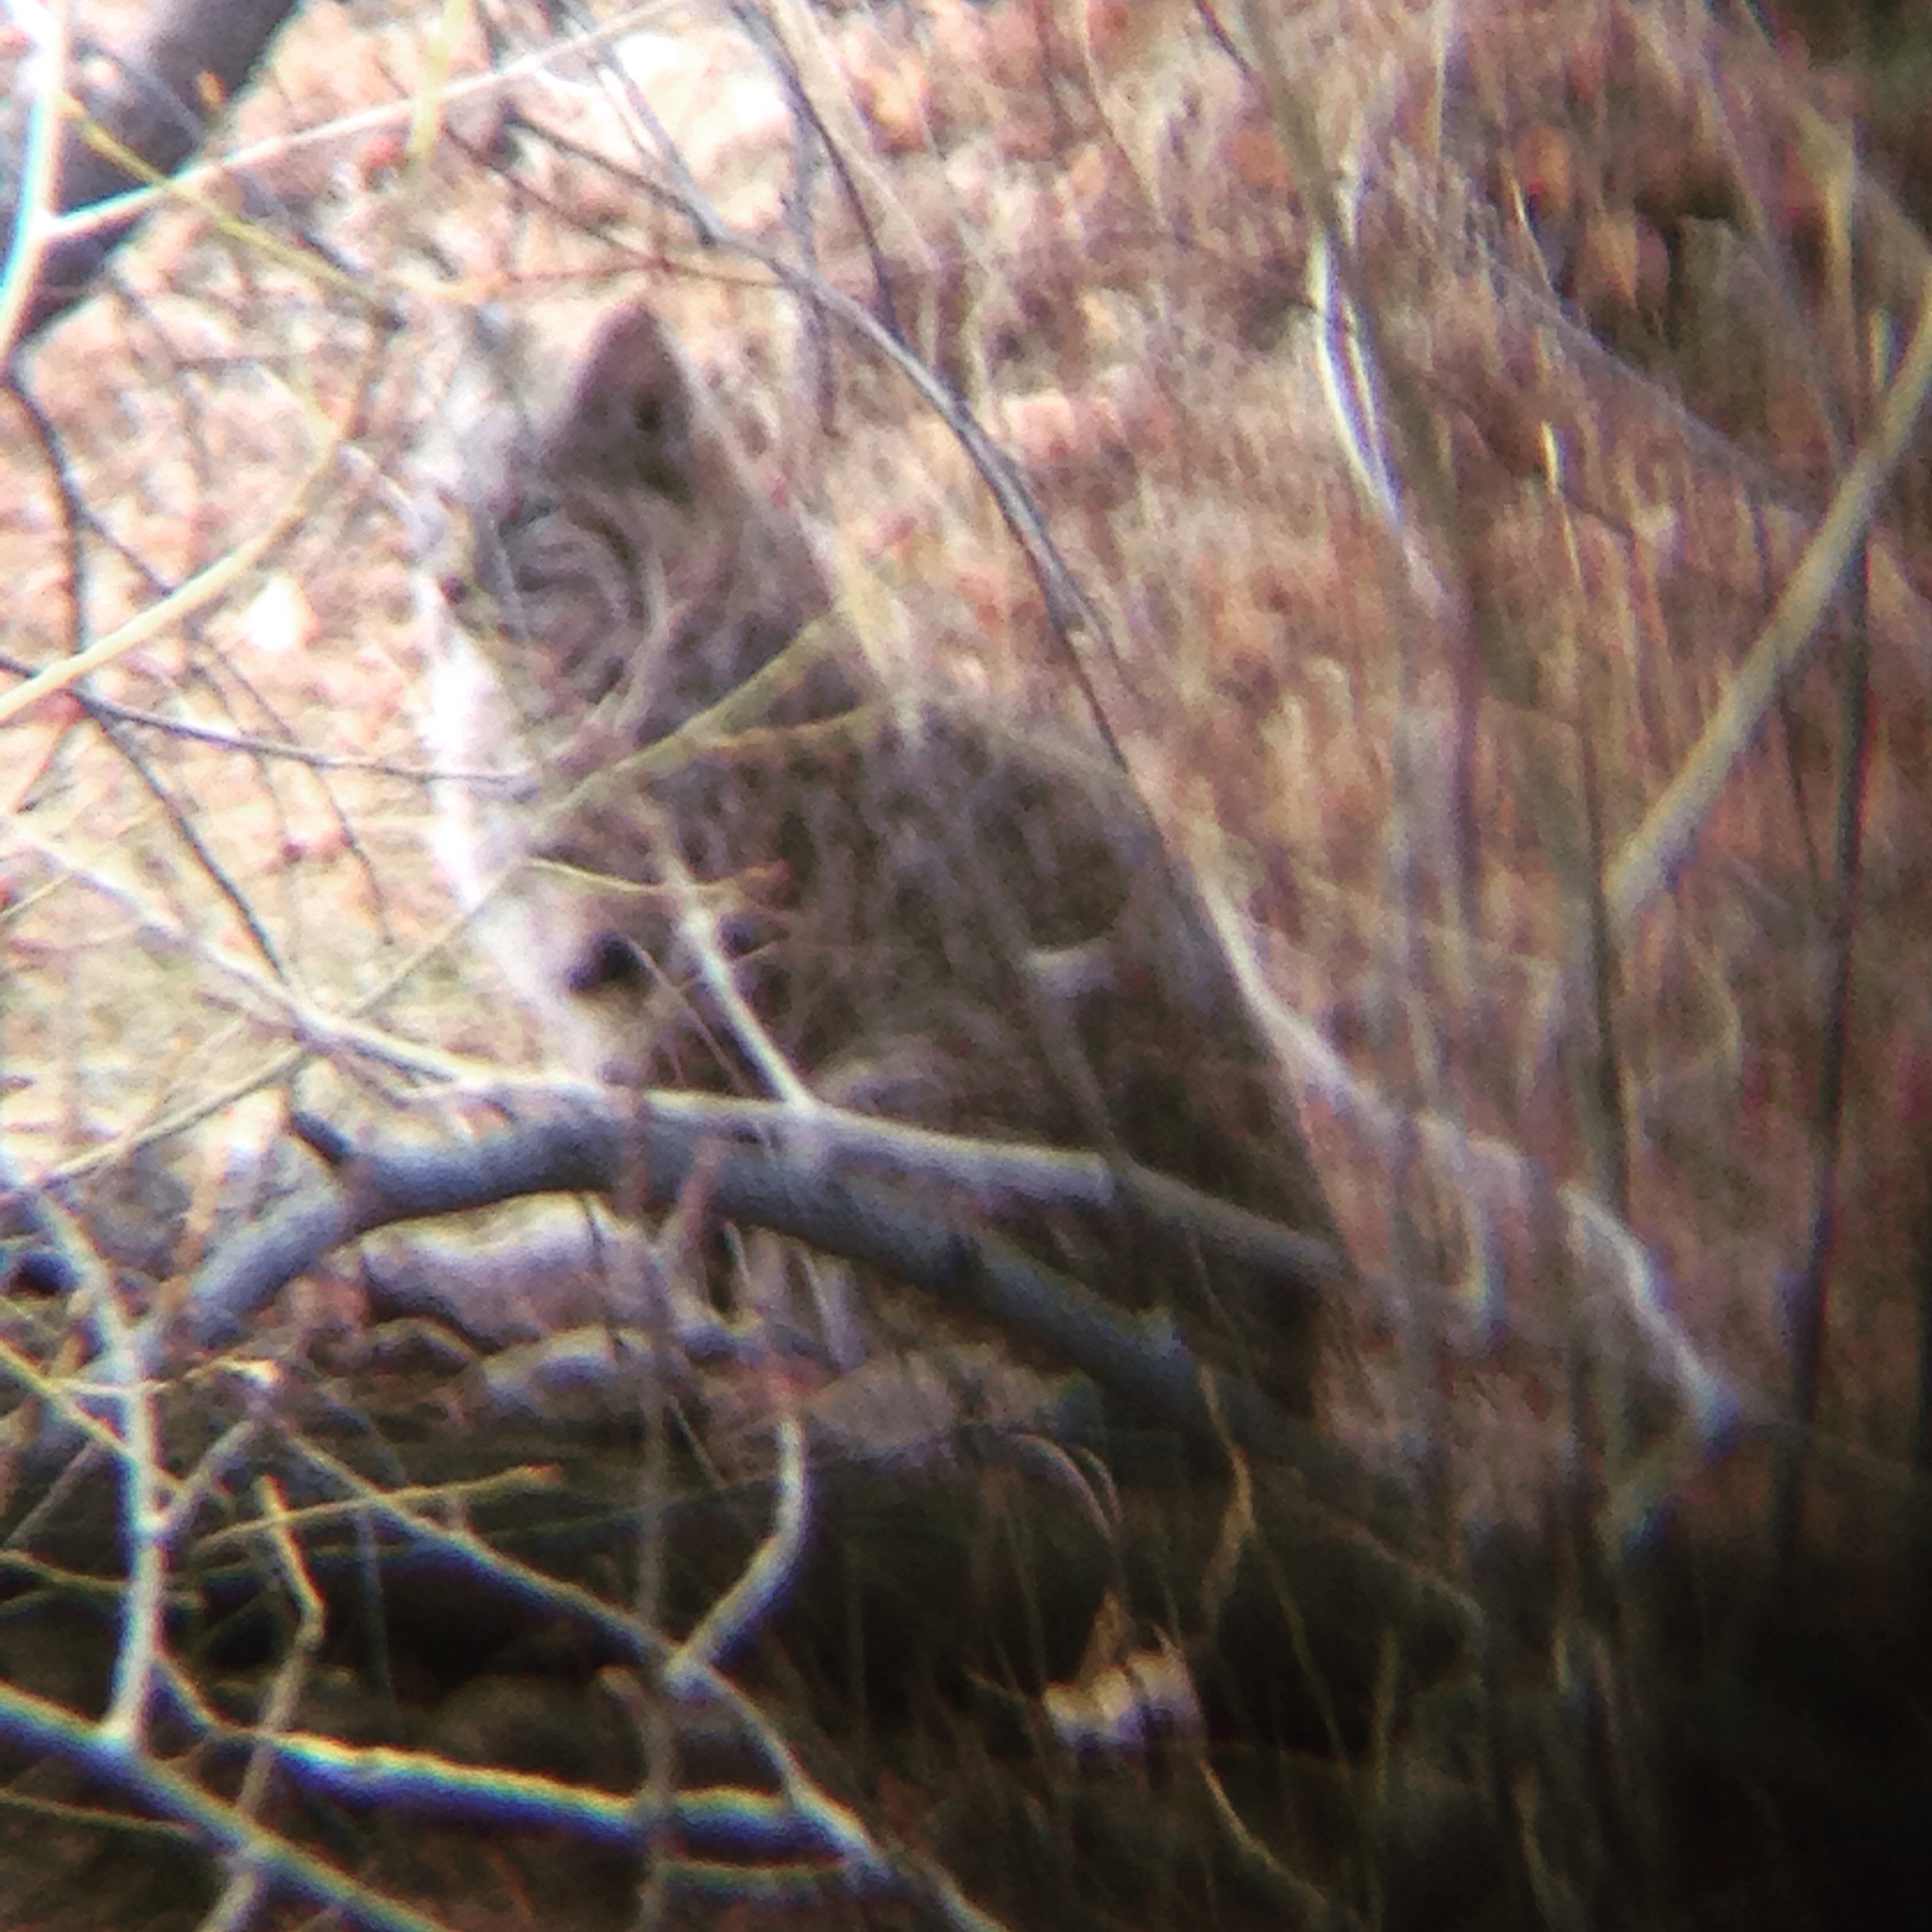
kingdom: Animalia
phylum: Chordata
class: Mammalia
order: Carnivora
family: Felidae
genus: Lynx
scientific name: Lynx rufus
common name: Bobcat
